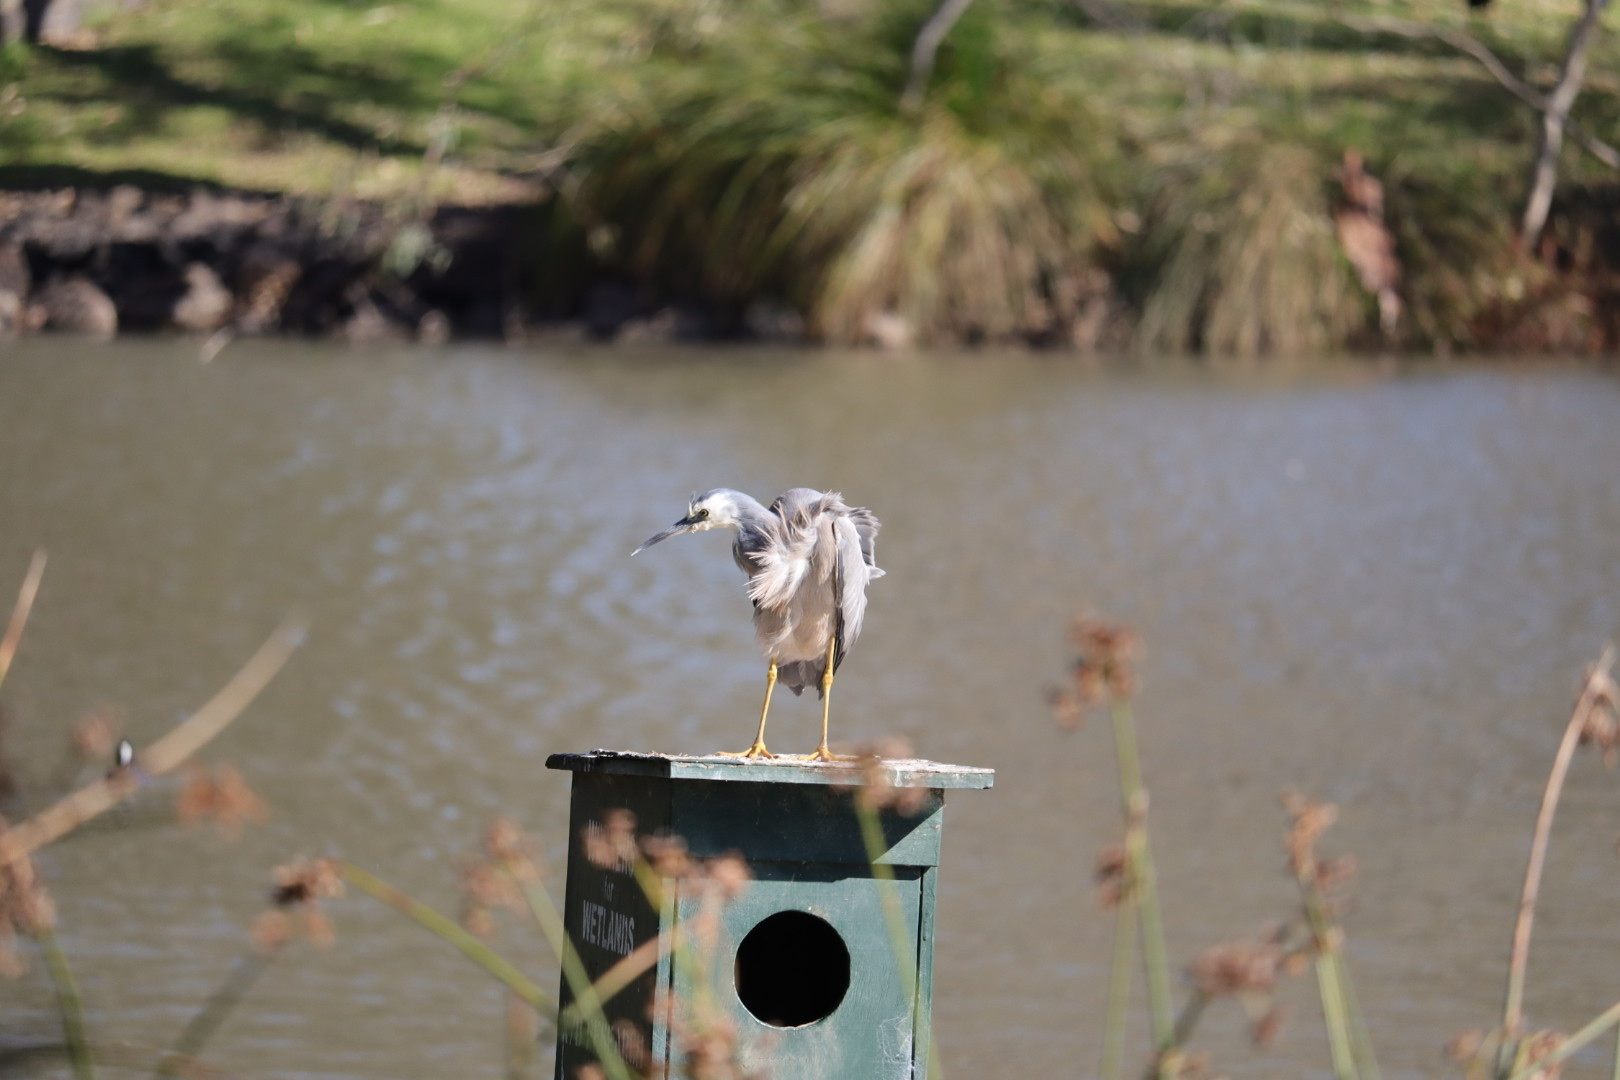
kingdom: Animalia
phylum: Chordata
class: Aves
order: Pelecaniformes
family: Ardeidae
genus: Egretta
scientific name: Egretta novaehollandiae
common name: White-faced heron
